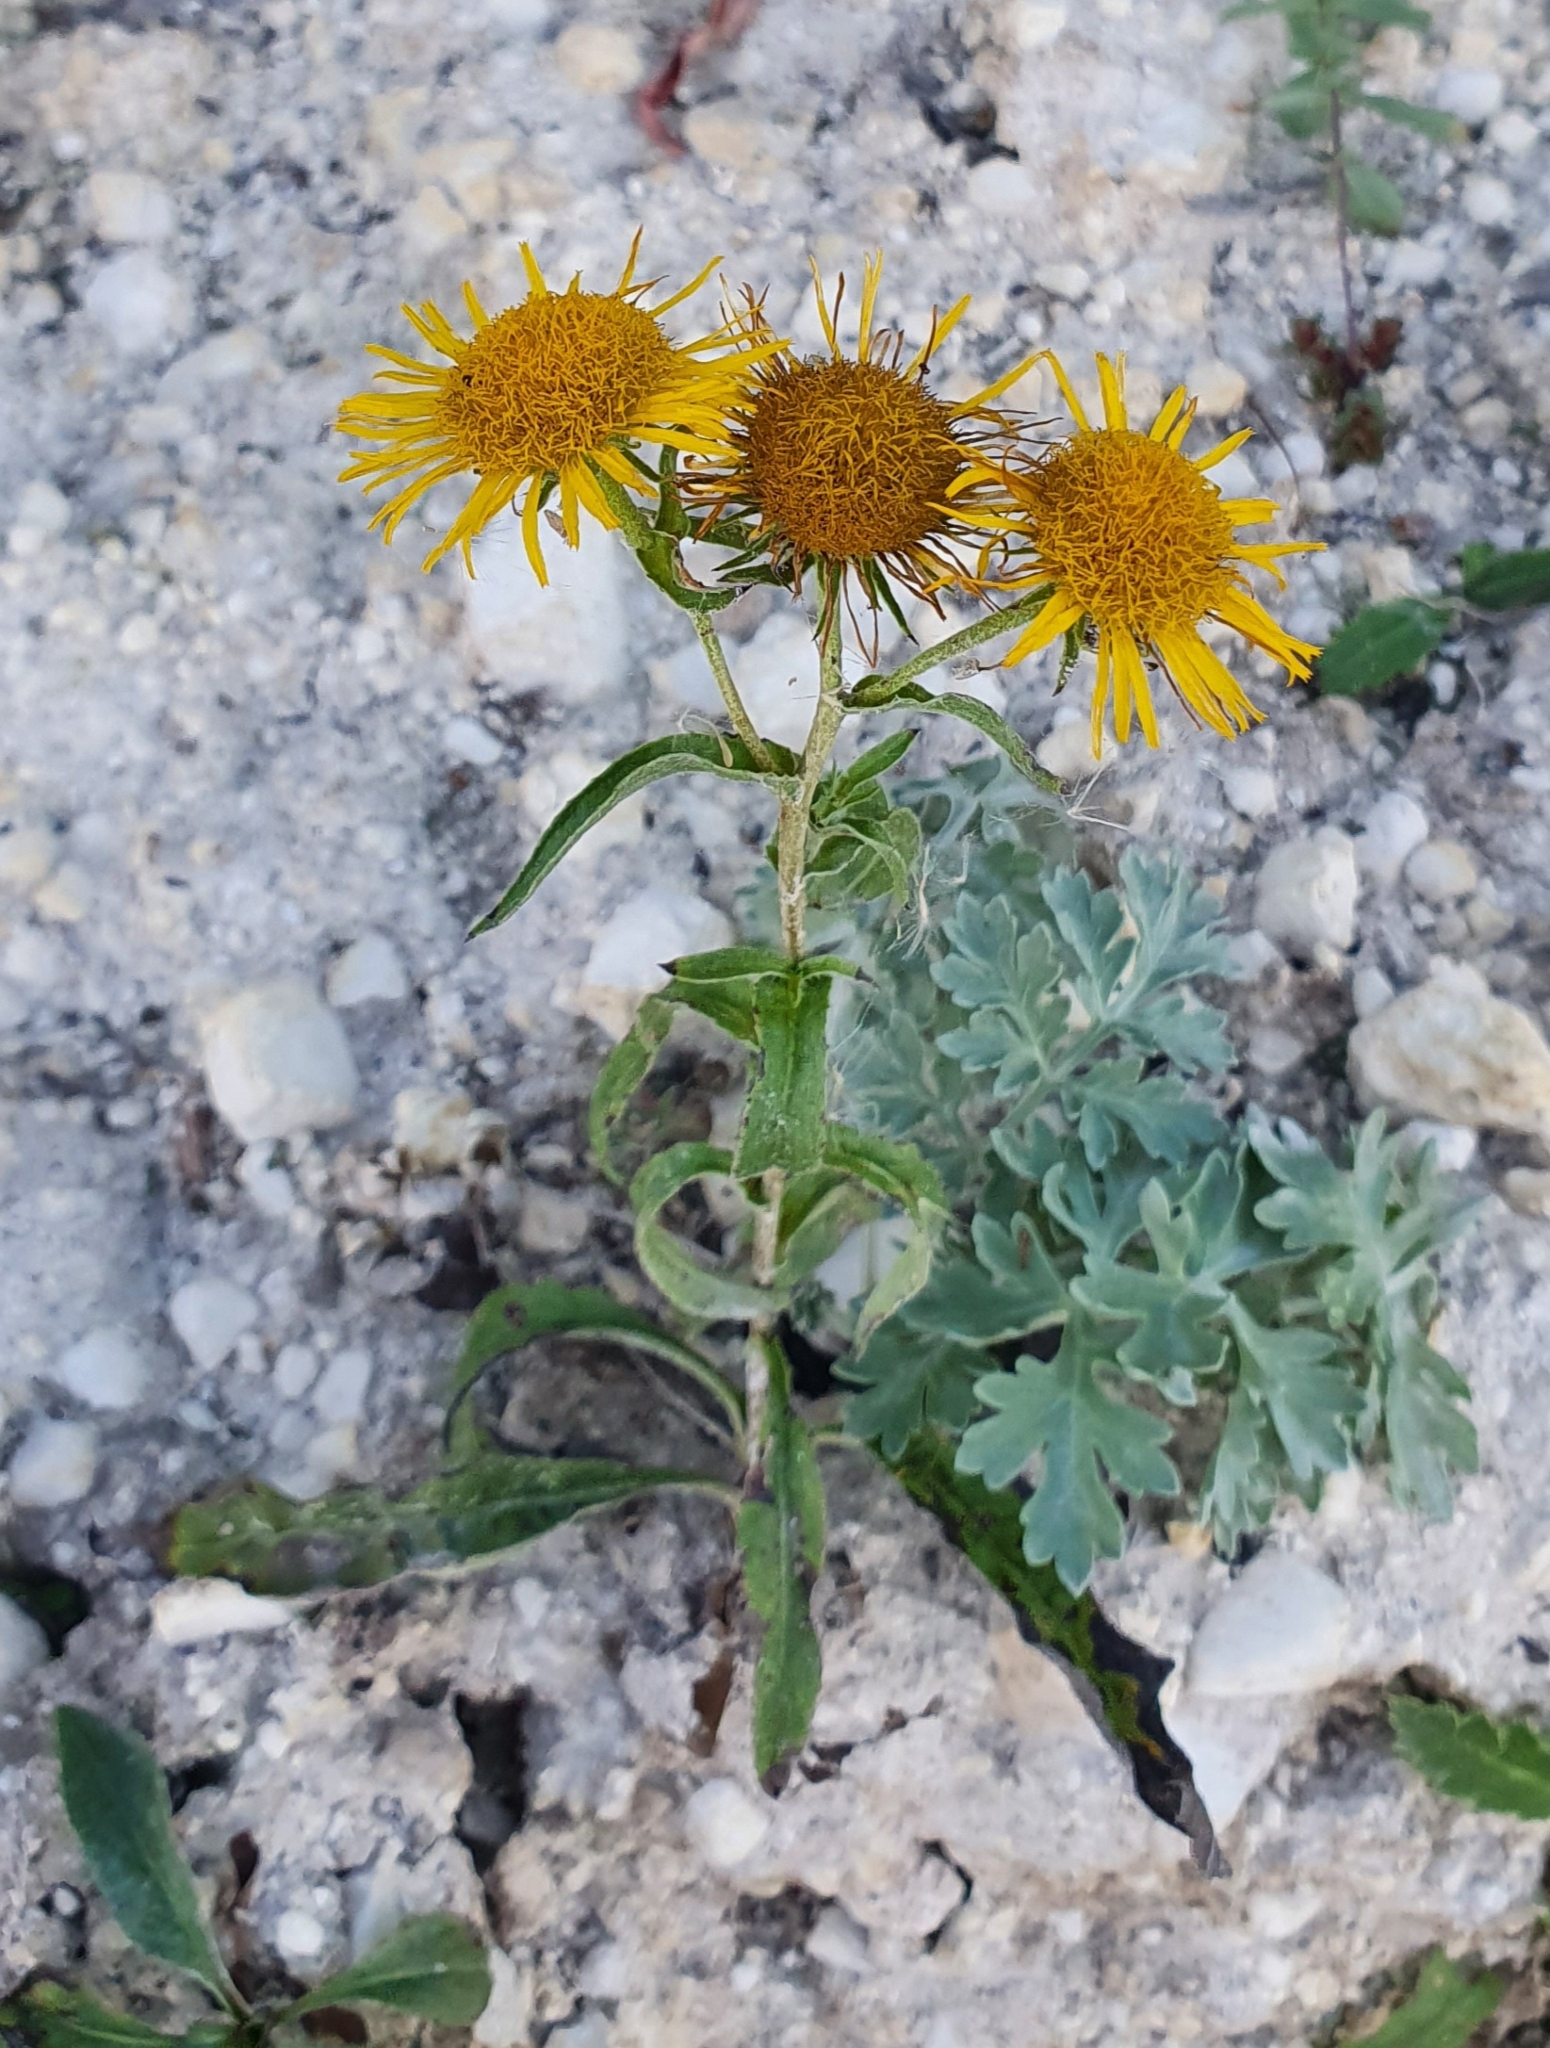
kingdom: Plantae
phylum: Tracheophyta
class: Magnoliopsida
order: Asterales
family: Asteraceae
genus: Pentanema
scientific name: Pentanema britannicum
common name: British elecampane
